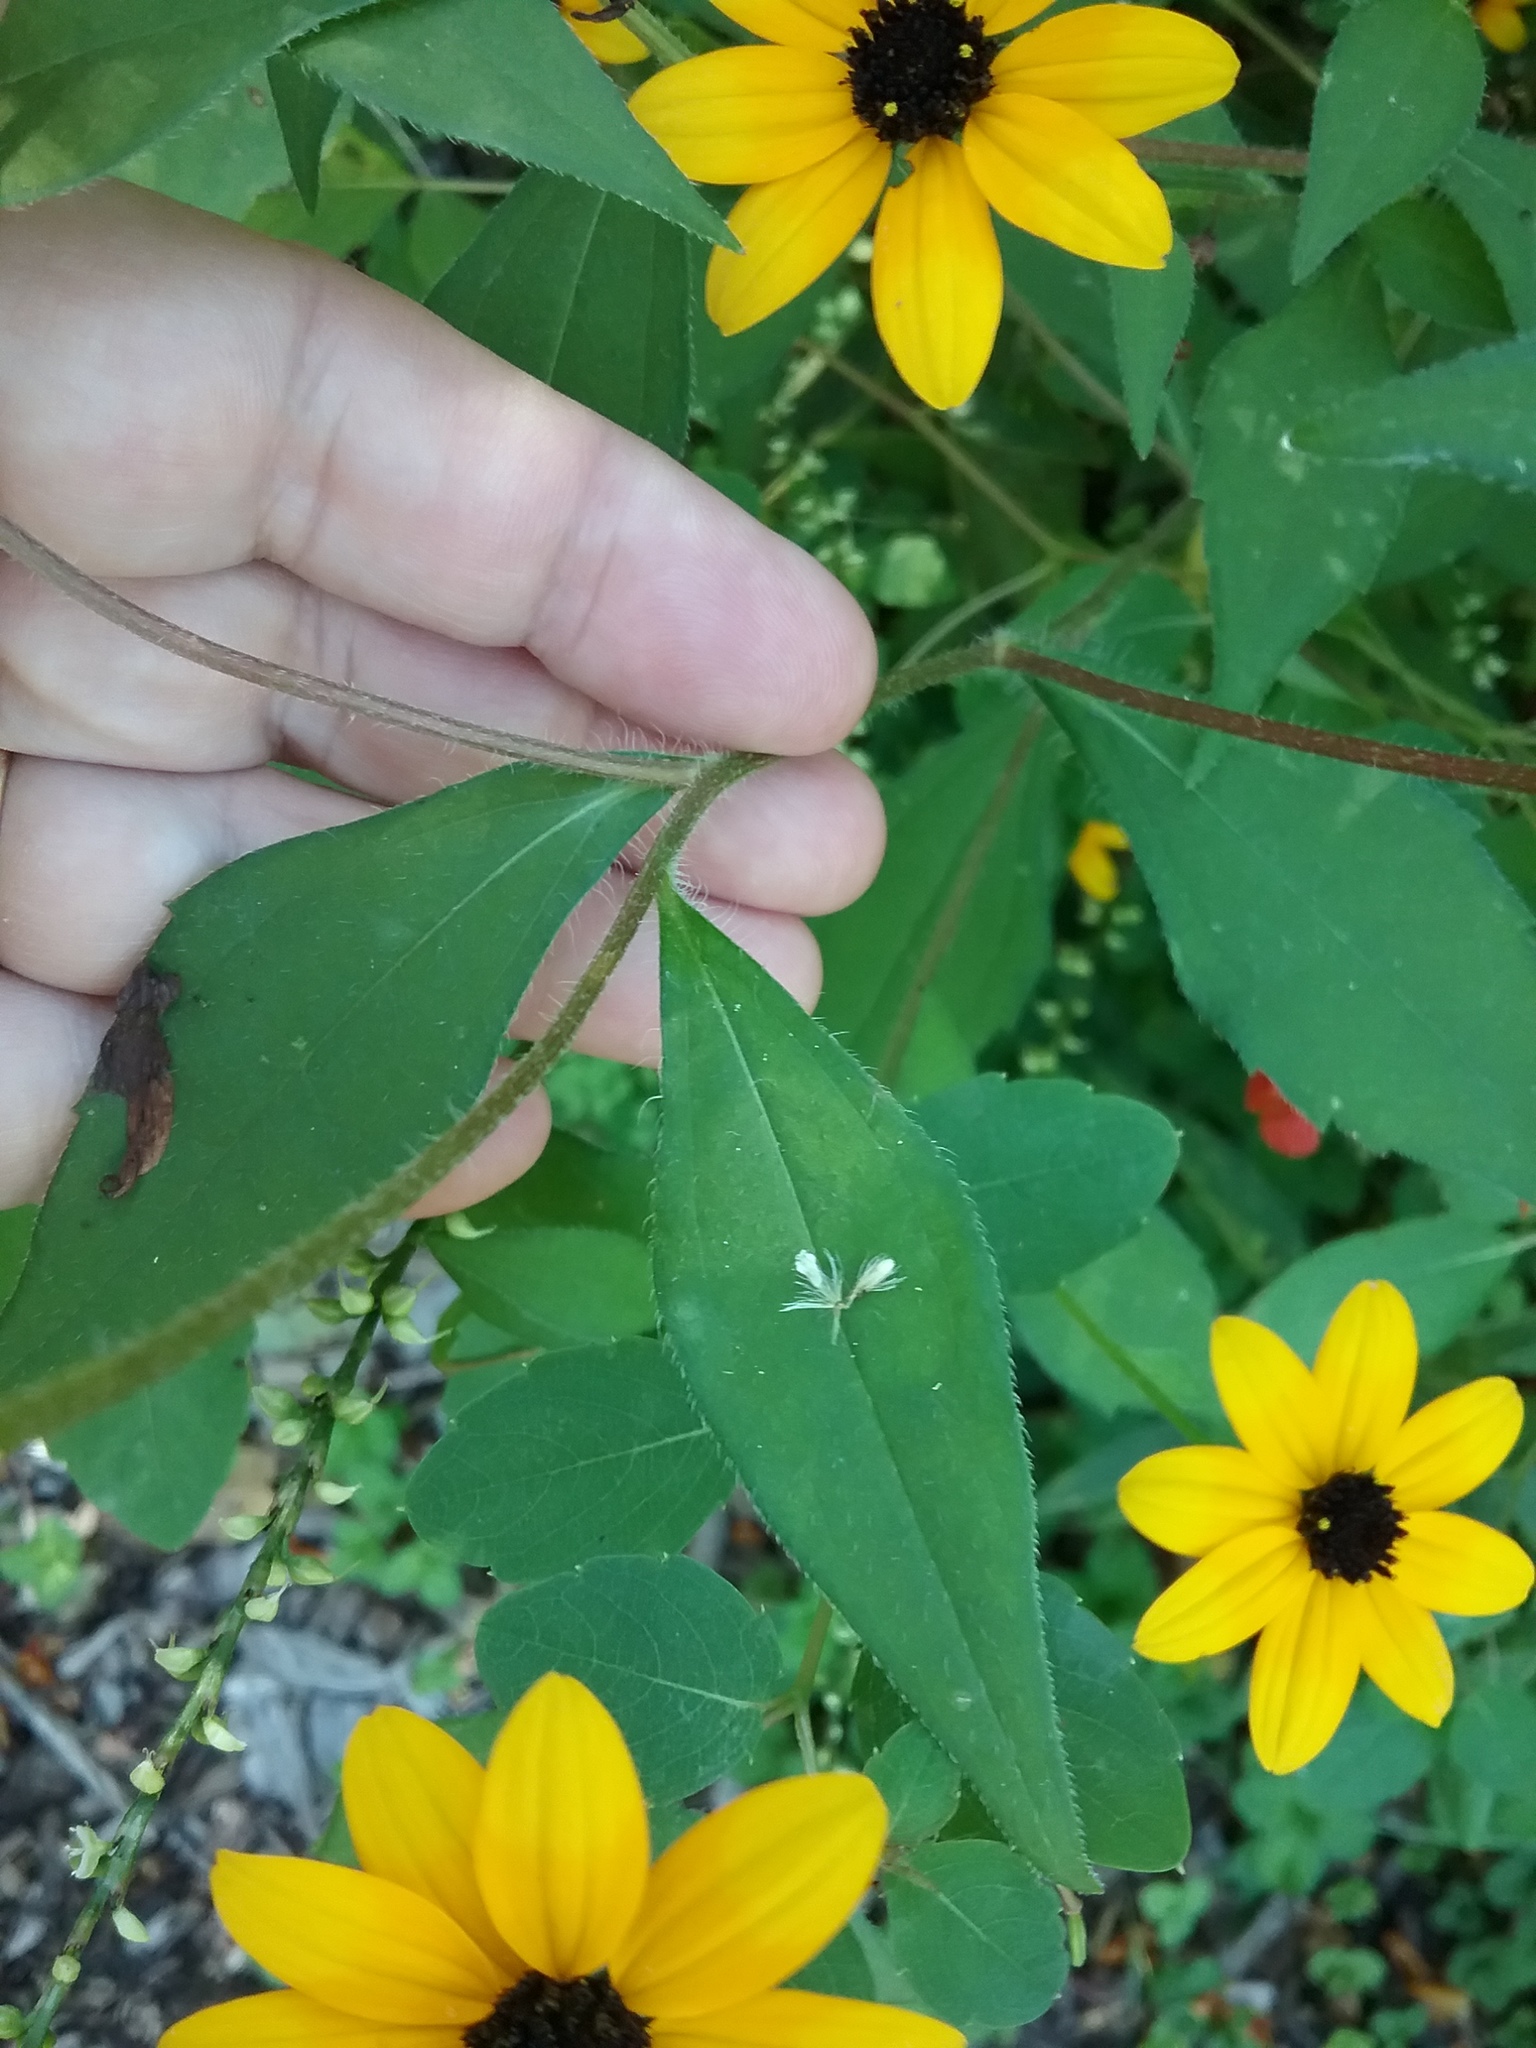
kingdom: Plantae
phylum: Tracheophyta
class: Magnoliopsida
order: Asterales
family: Asteraceae
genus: Rudbeckia
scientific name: Rudbeckia triloba
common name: Thin-leaved coneflower
